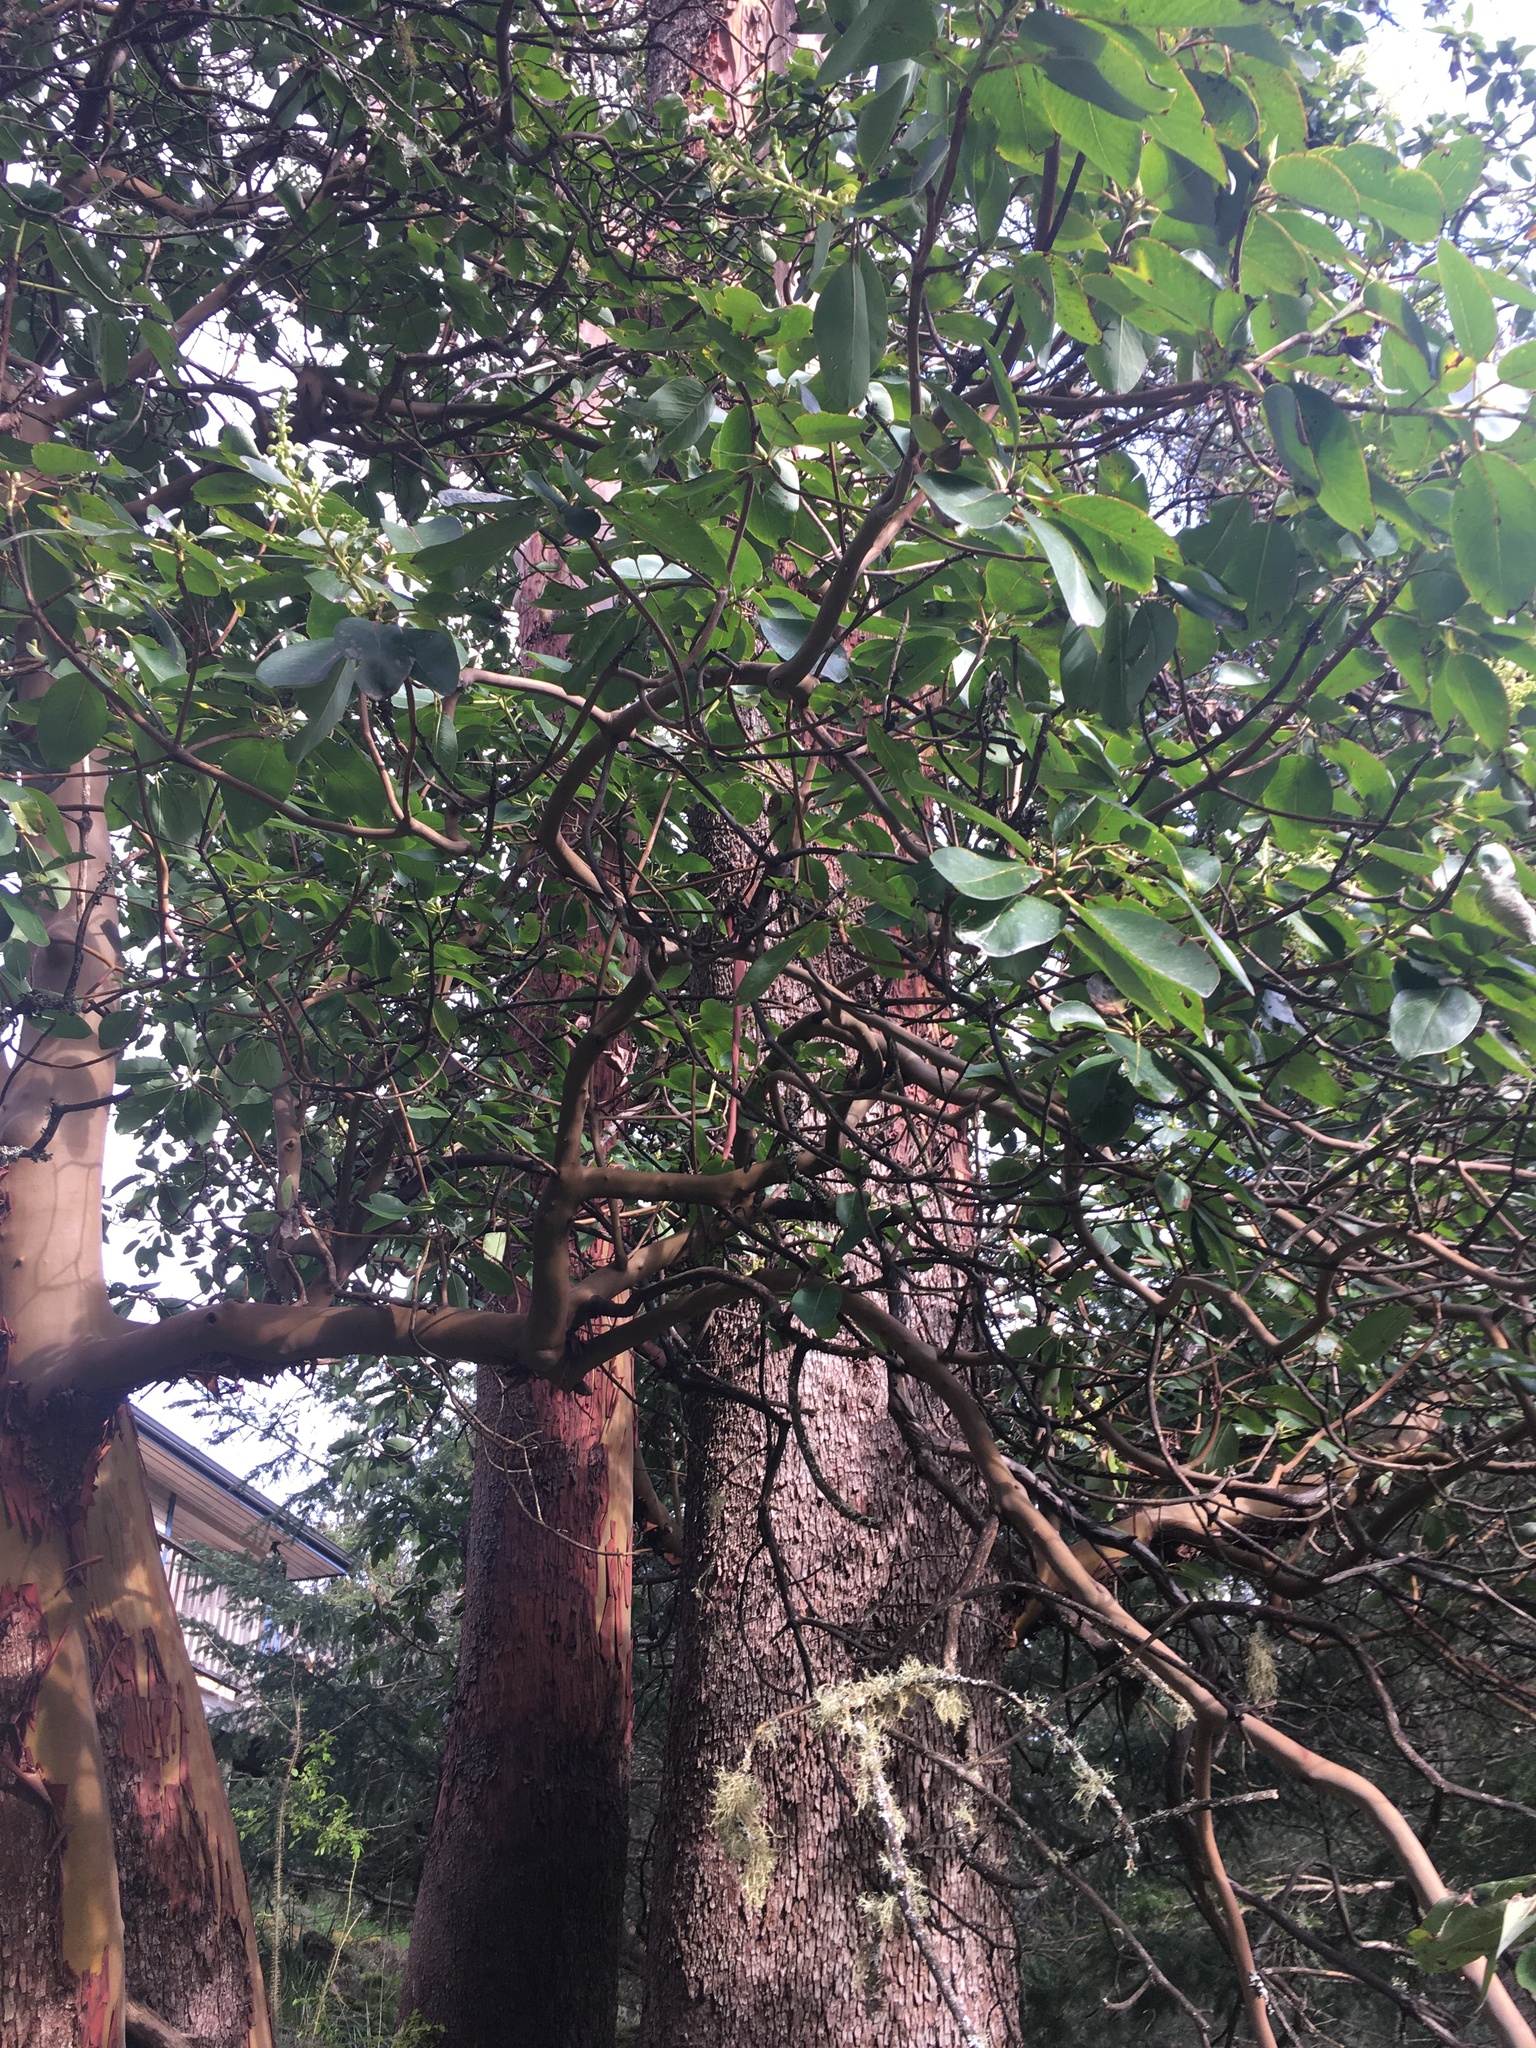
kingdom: Plantae
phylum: Tracheophyta
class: Magnoliopsida
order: Ericales
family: Ericaceae
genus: Arbutus
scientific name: Arbutus menziesii
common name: Pacific madrone
